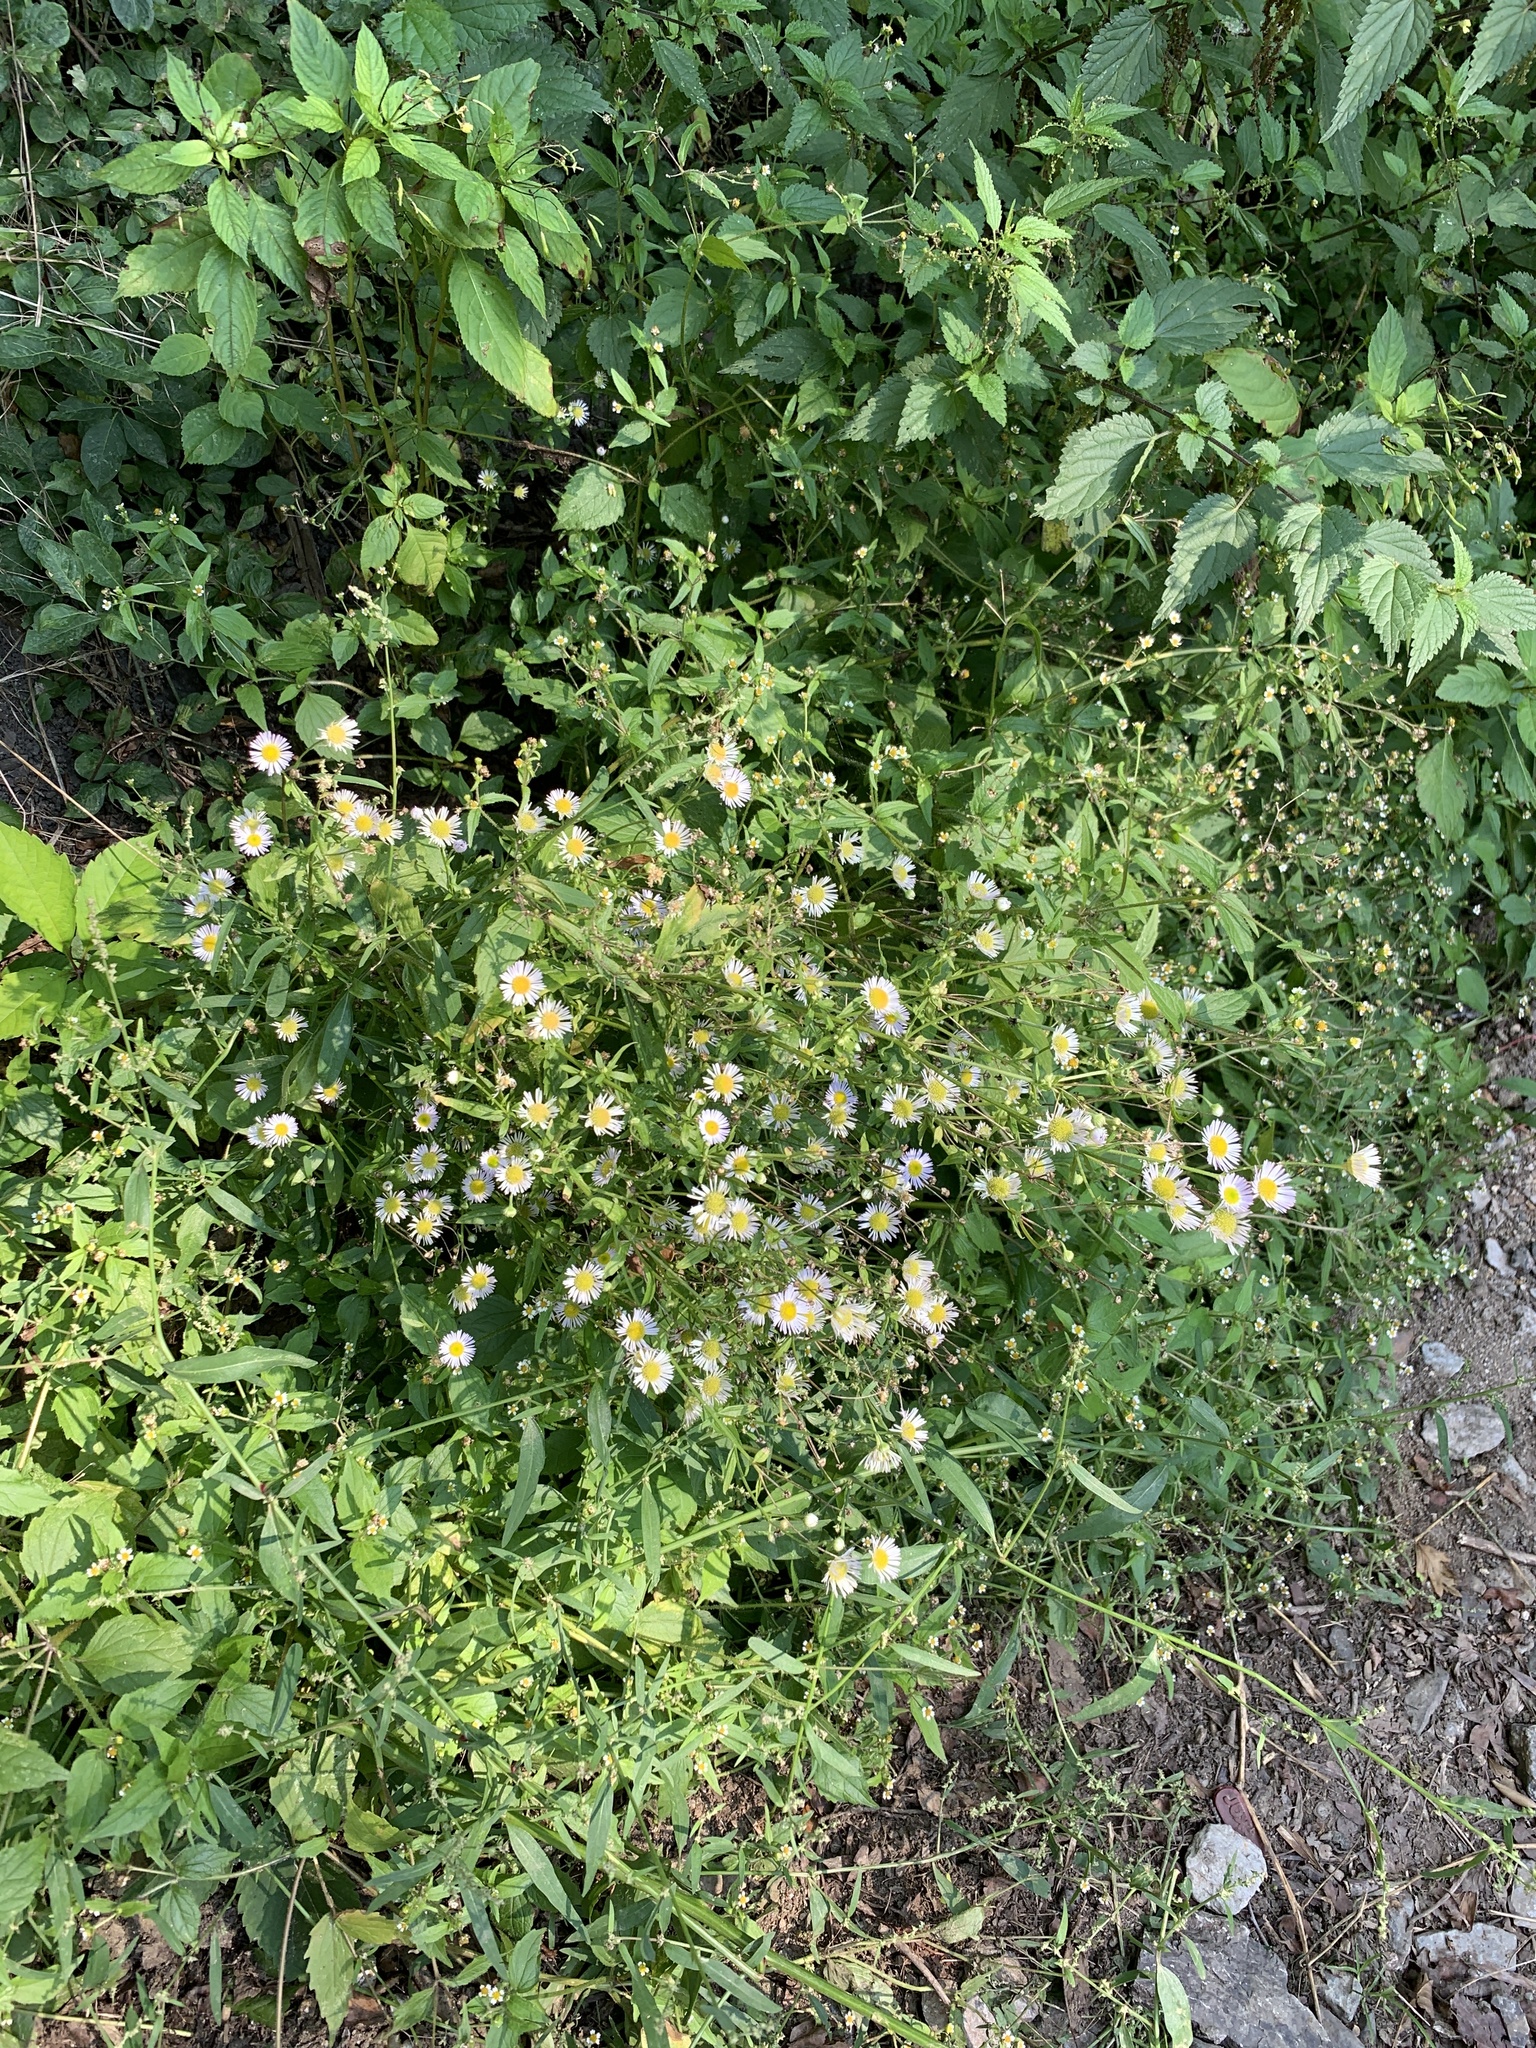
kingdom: Plantae
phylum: Tracheophyta
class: Magnoliopsida
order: Asterales
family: Asteraceae
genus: Erigeron
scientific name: Erigeron annuus
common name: Tall fleabane
